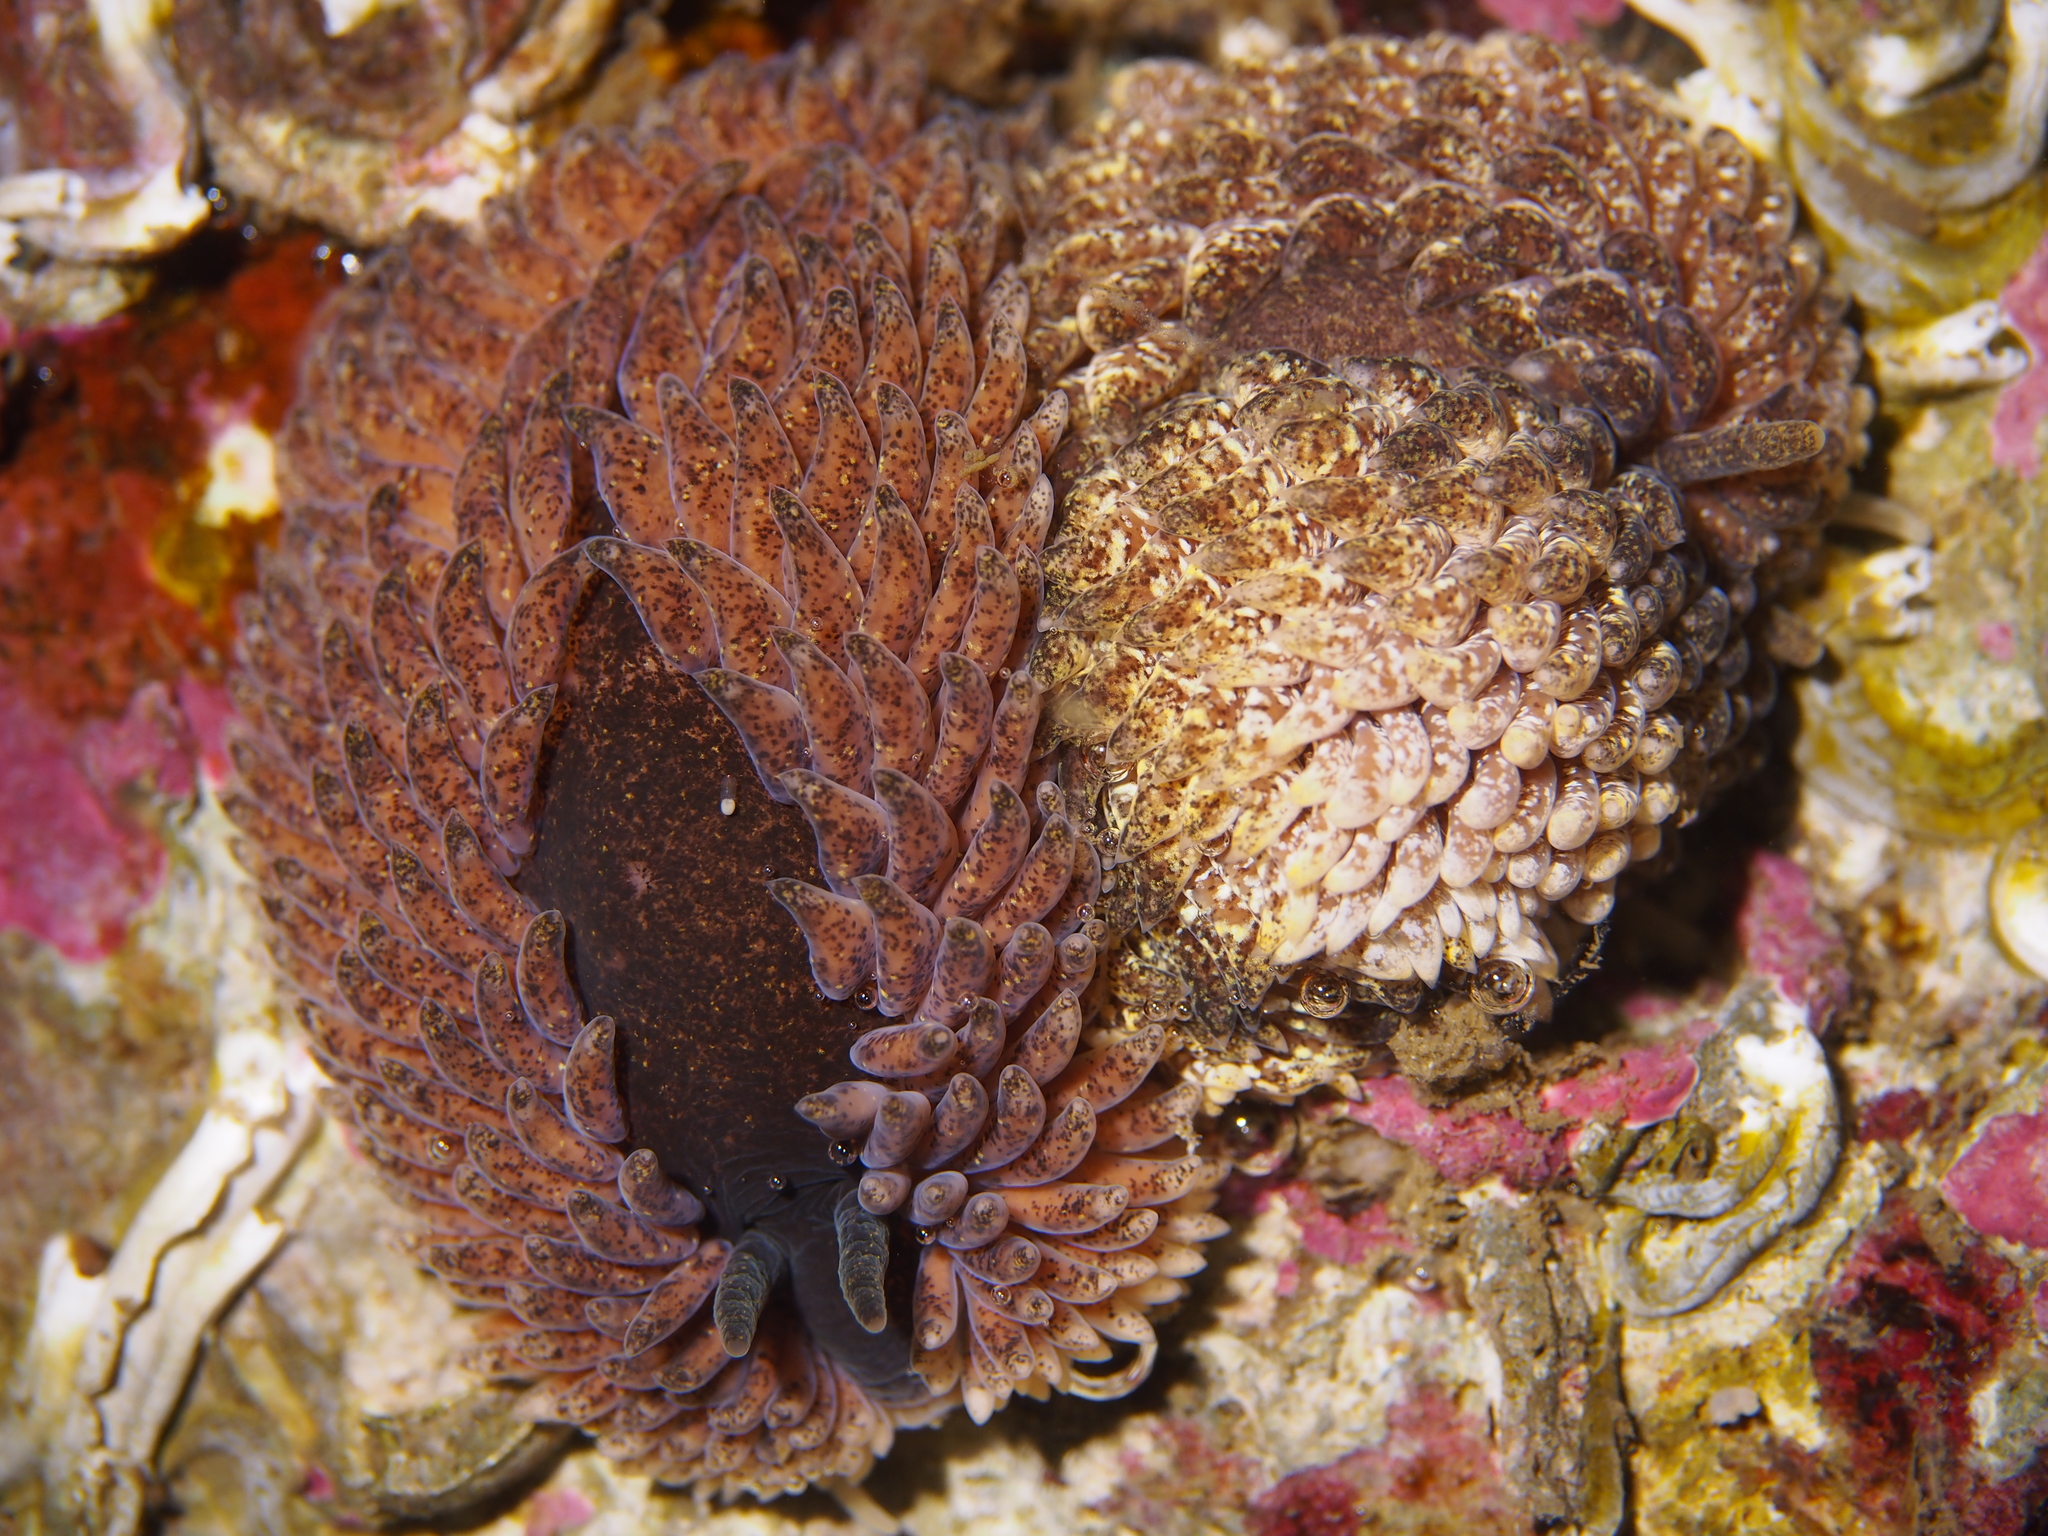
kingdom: Animalia
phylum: Mollusca
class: Gastropoda
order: Nudibranchia
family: Aeolidiidae
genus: Aeolidia
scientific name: Aeolidia papillosa
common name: Common grey sea slug
